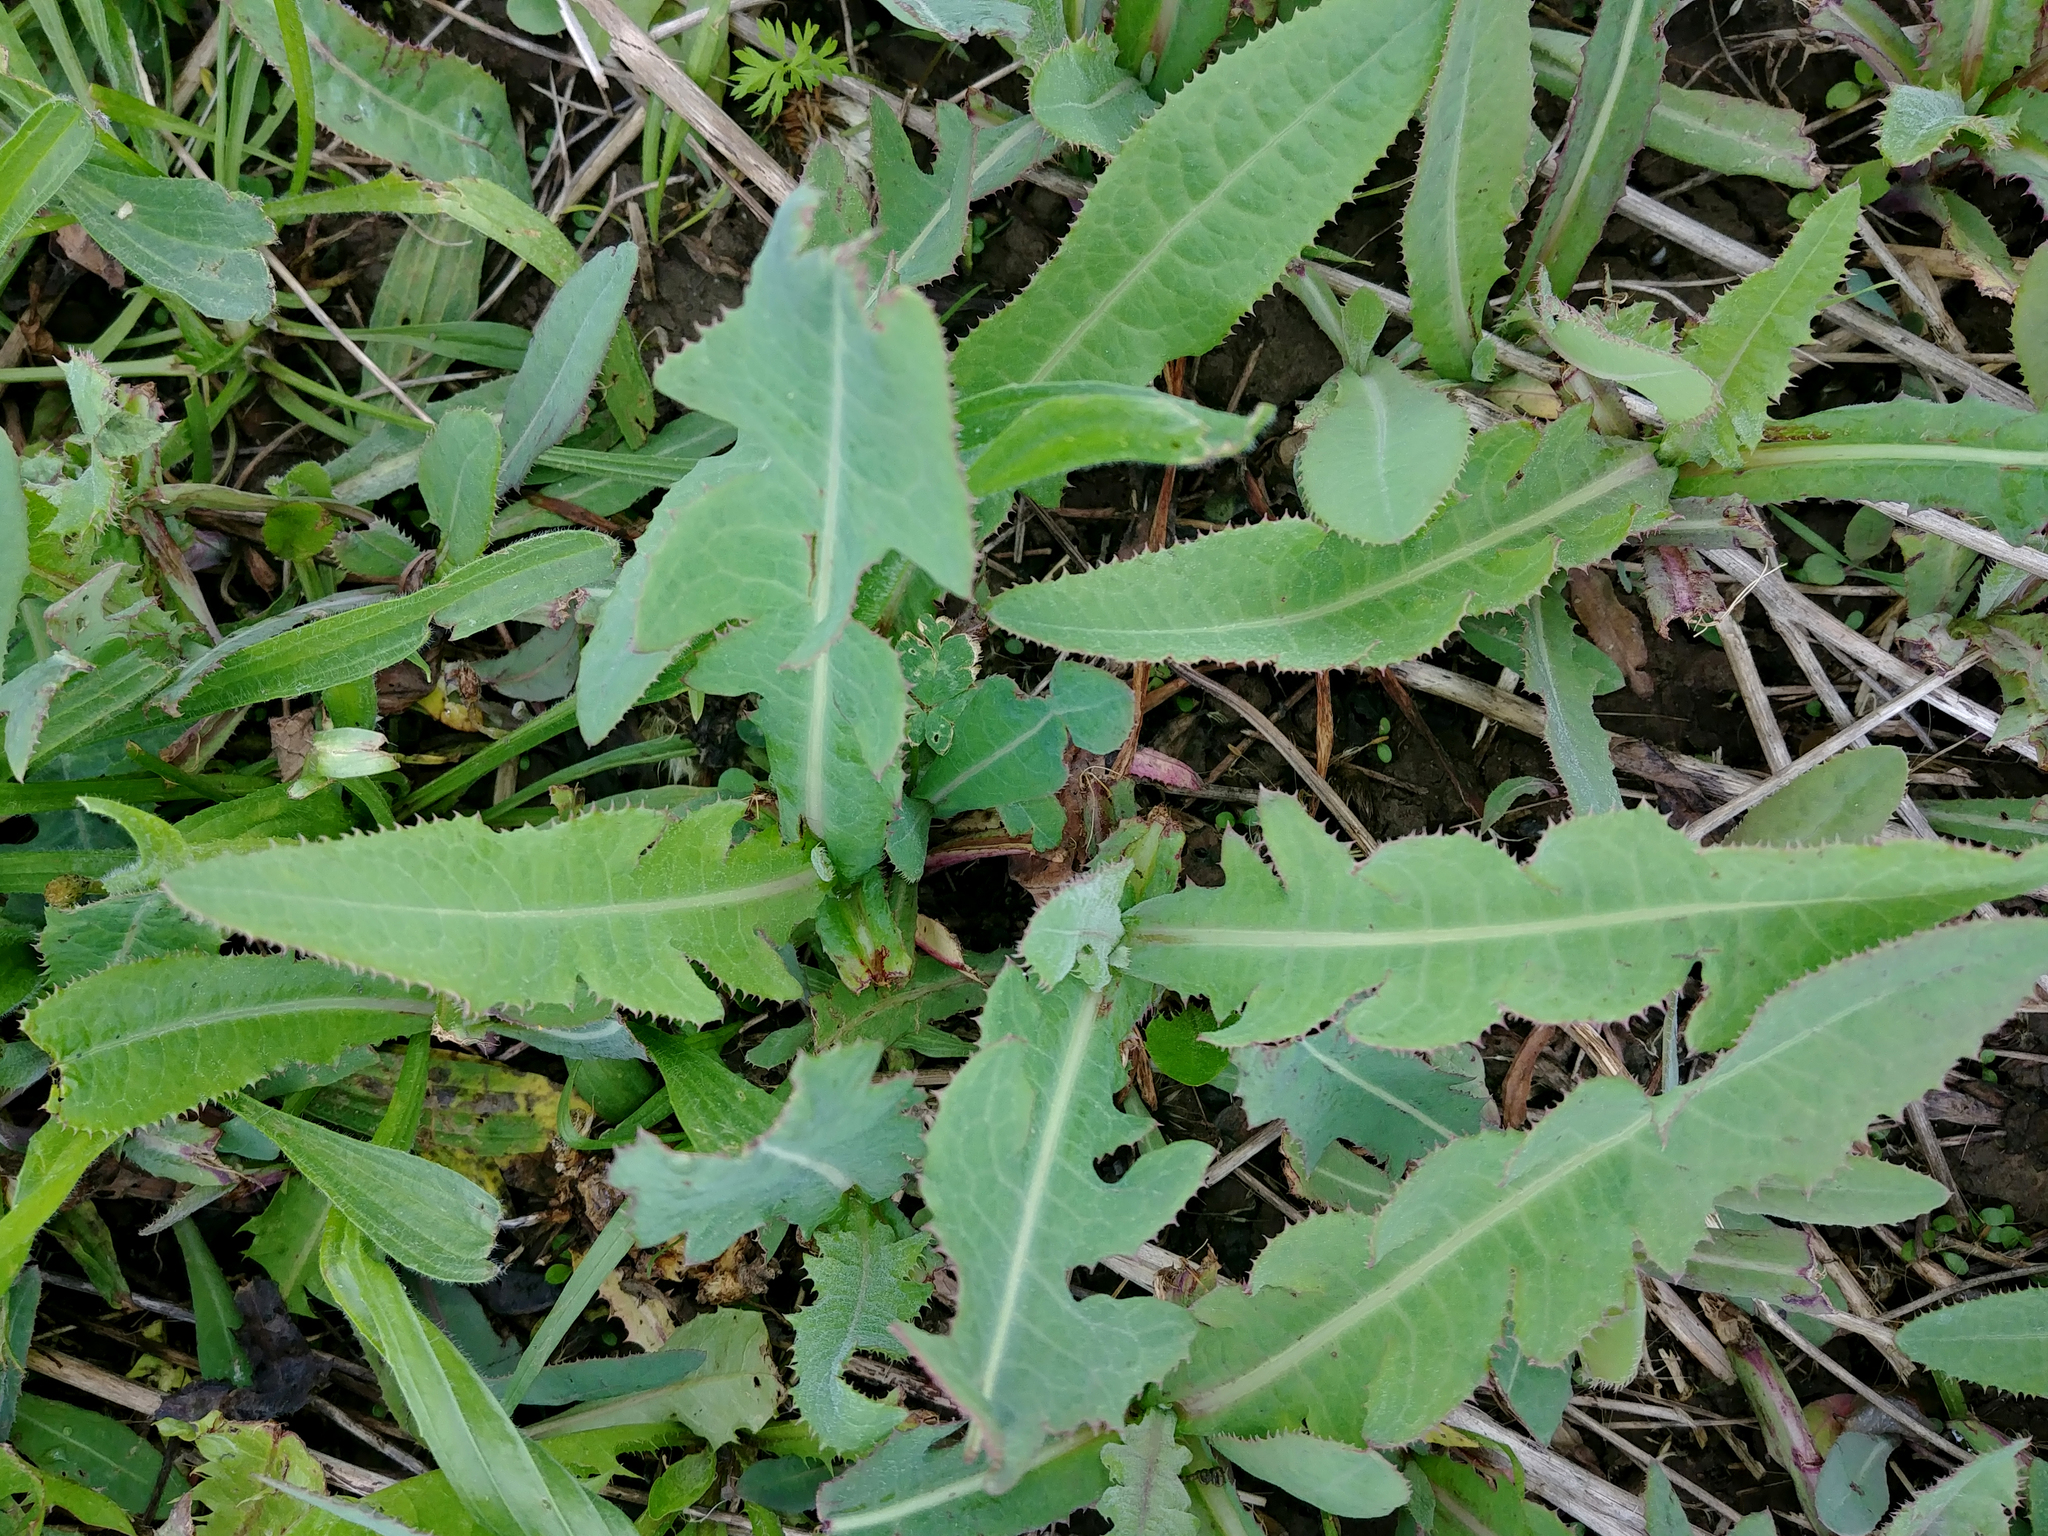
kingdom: Plantae
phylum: Tracheophyta
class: Magnoliopsida
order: Asterales
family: Asteraceae
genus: Sonchus
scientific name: Sonchus arvensis
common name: Perennial sow-thistle
